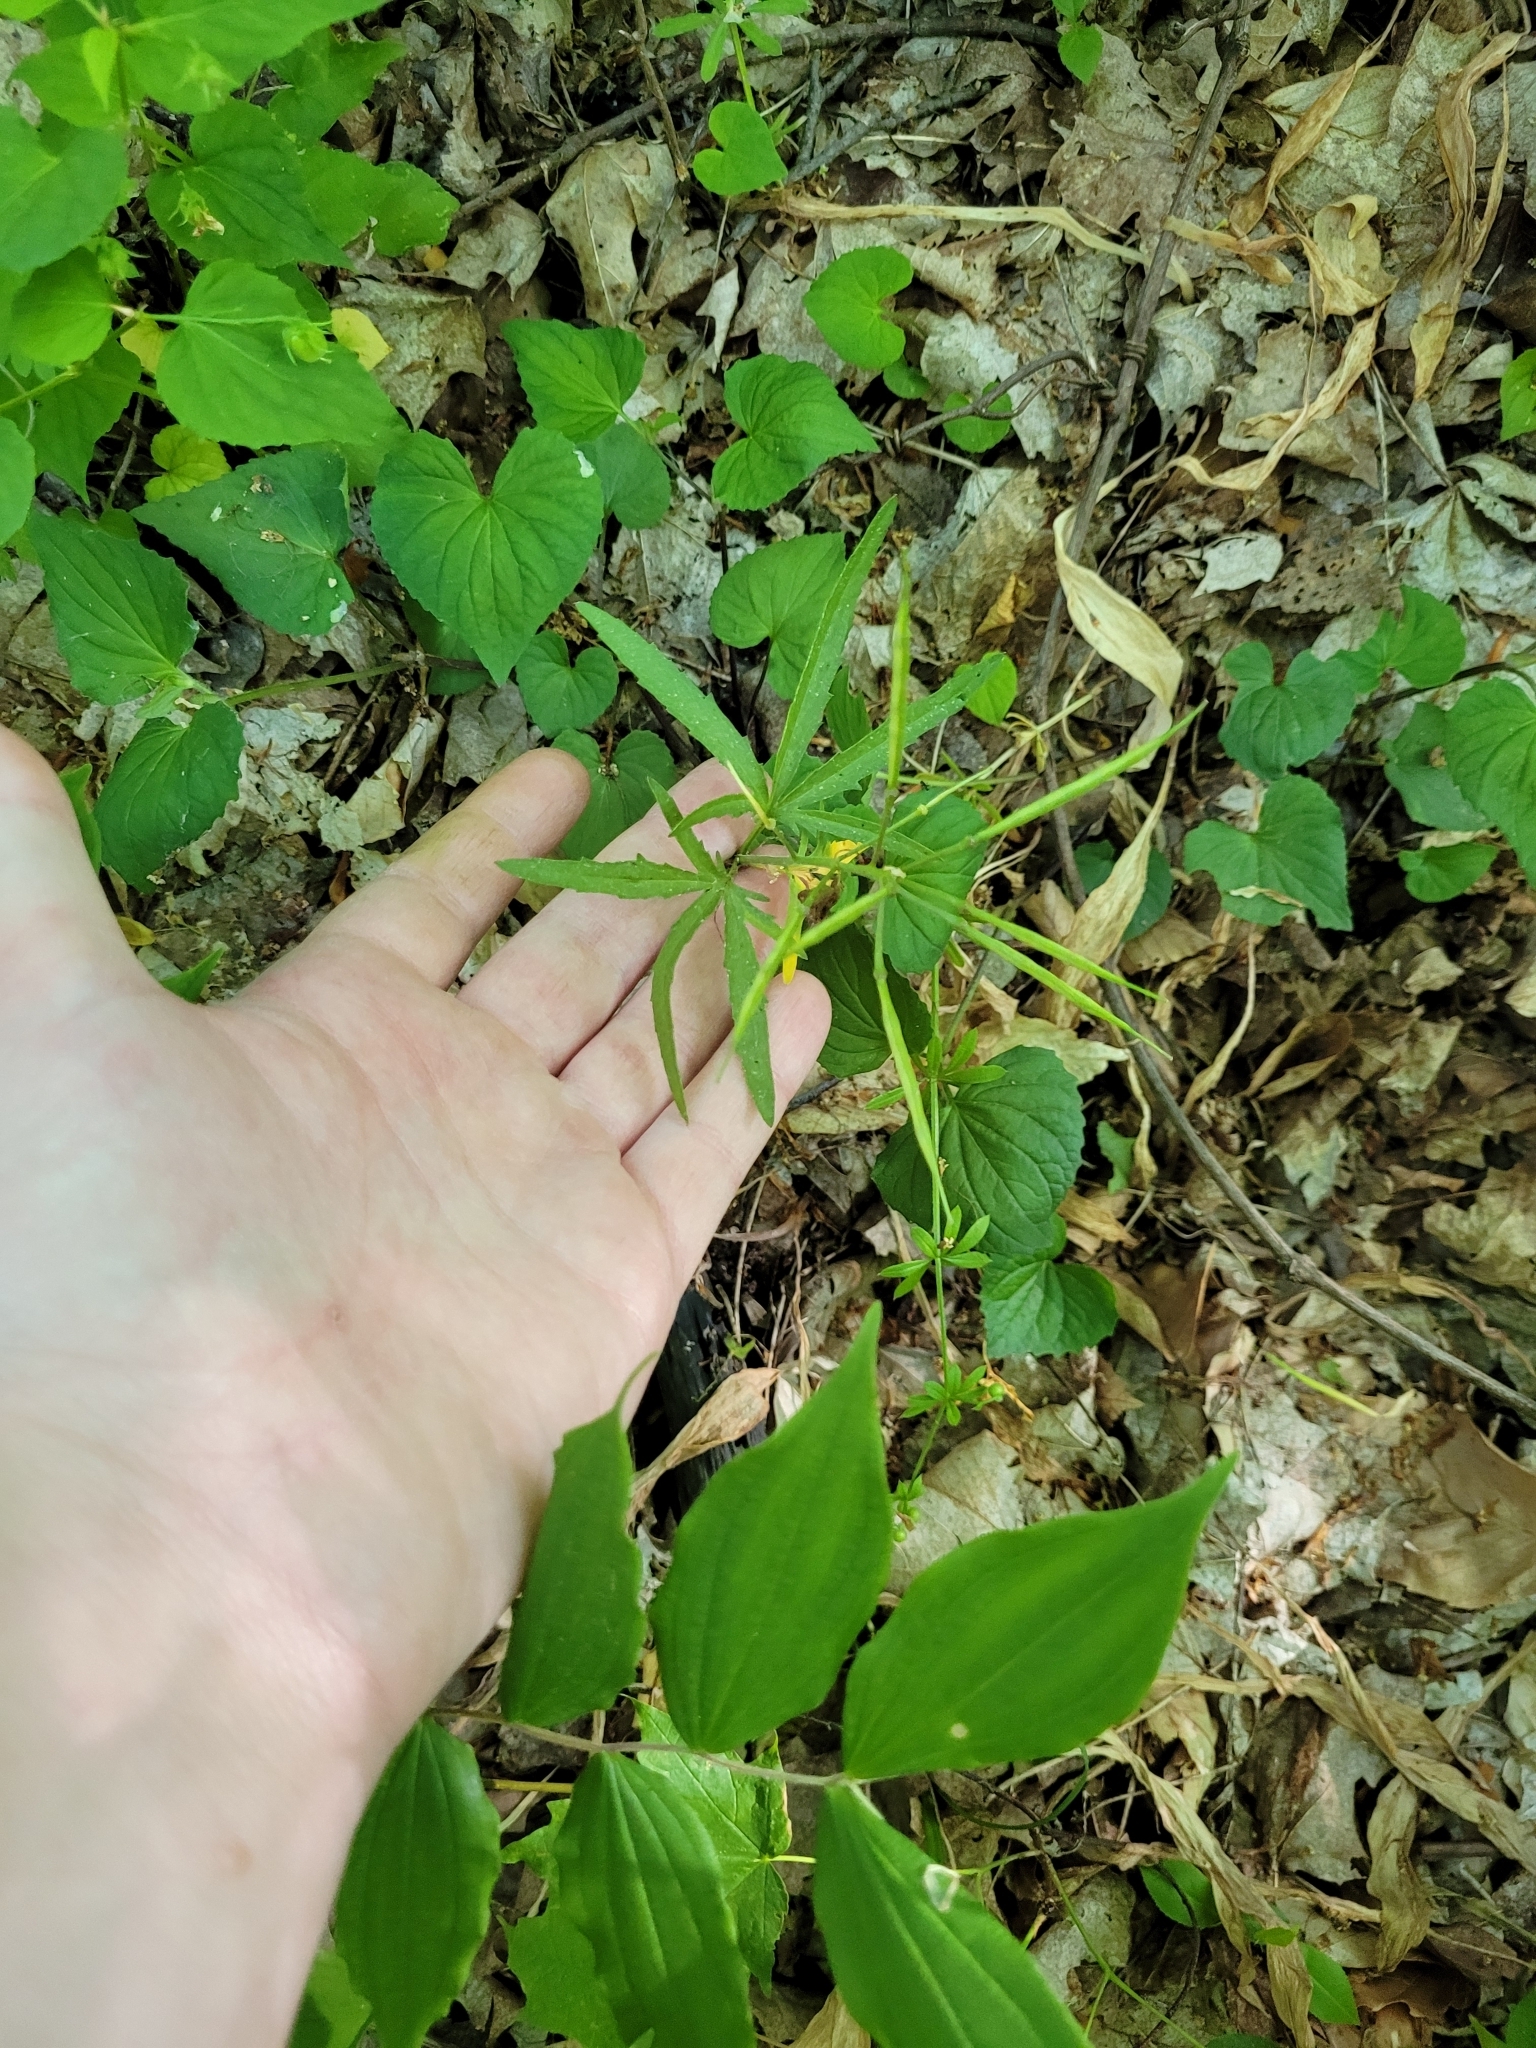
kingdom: Plantae
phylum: Tracheophyta
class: Magnoliopsida
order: Brassicales
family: Brassicaceae
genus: Cardamine
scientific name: Cardamine concatenata
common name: Cut-leaf toothcup
